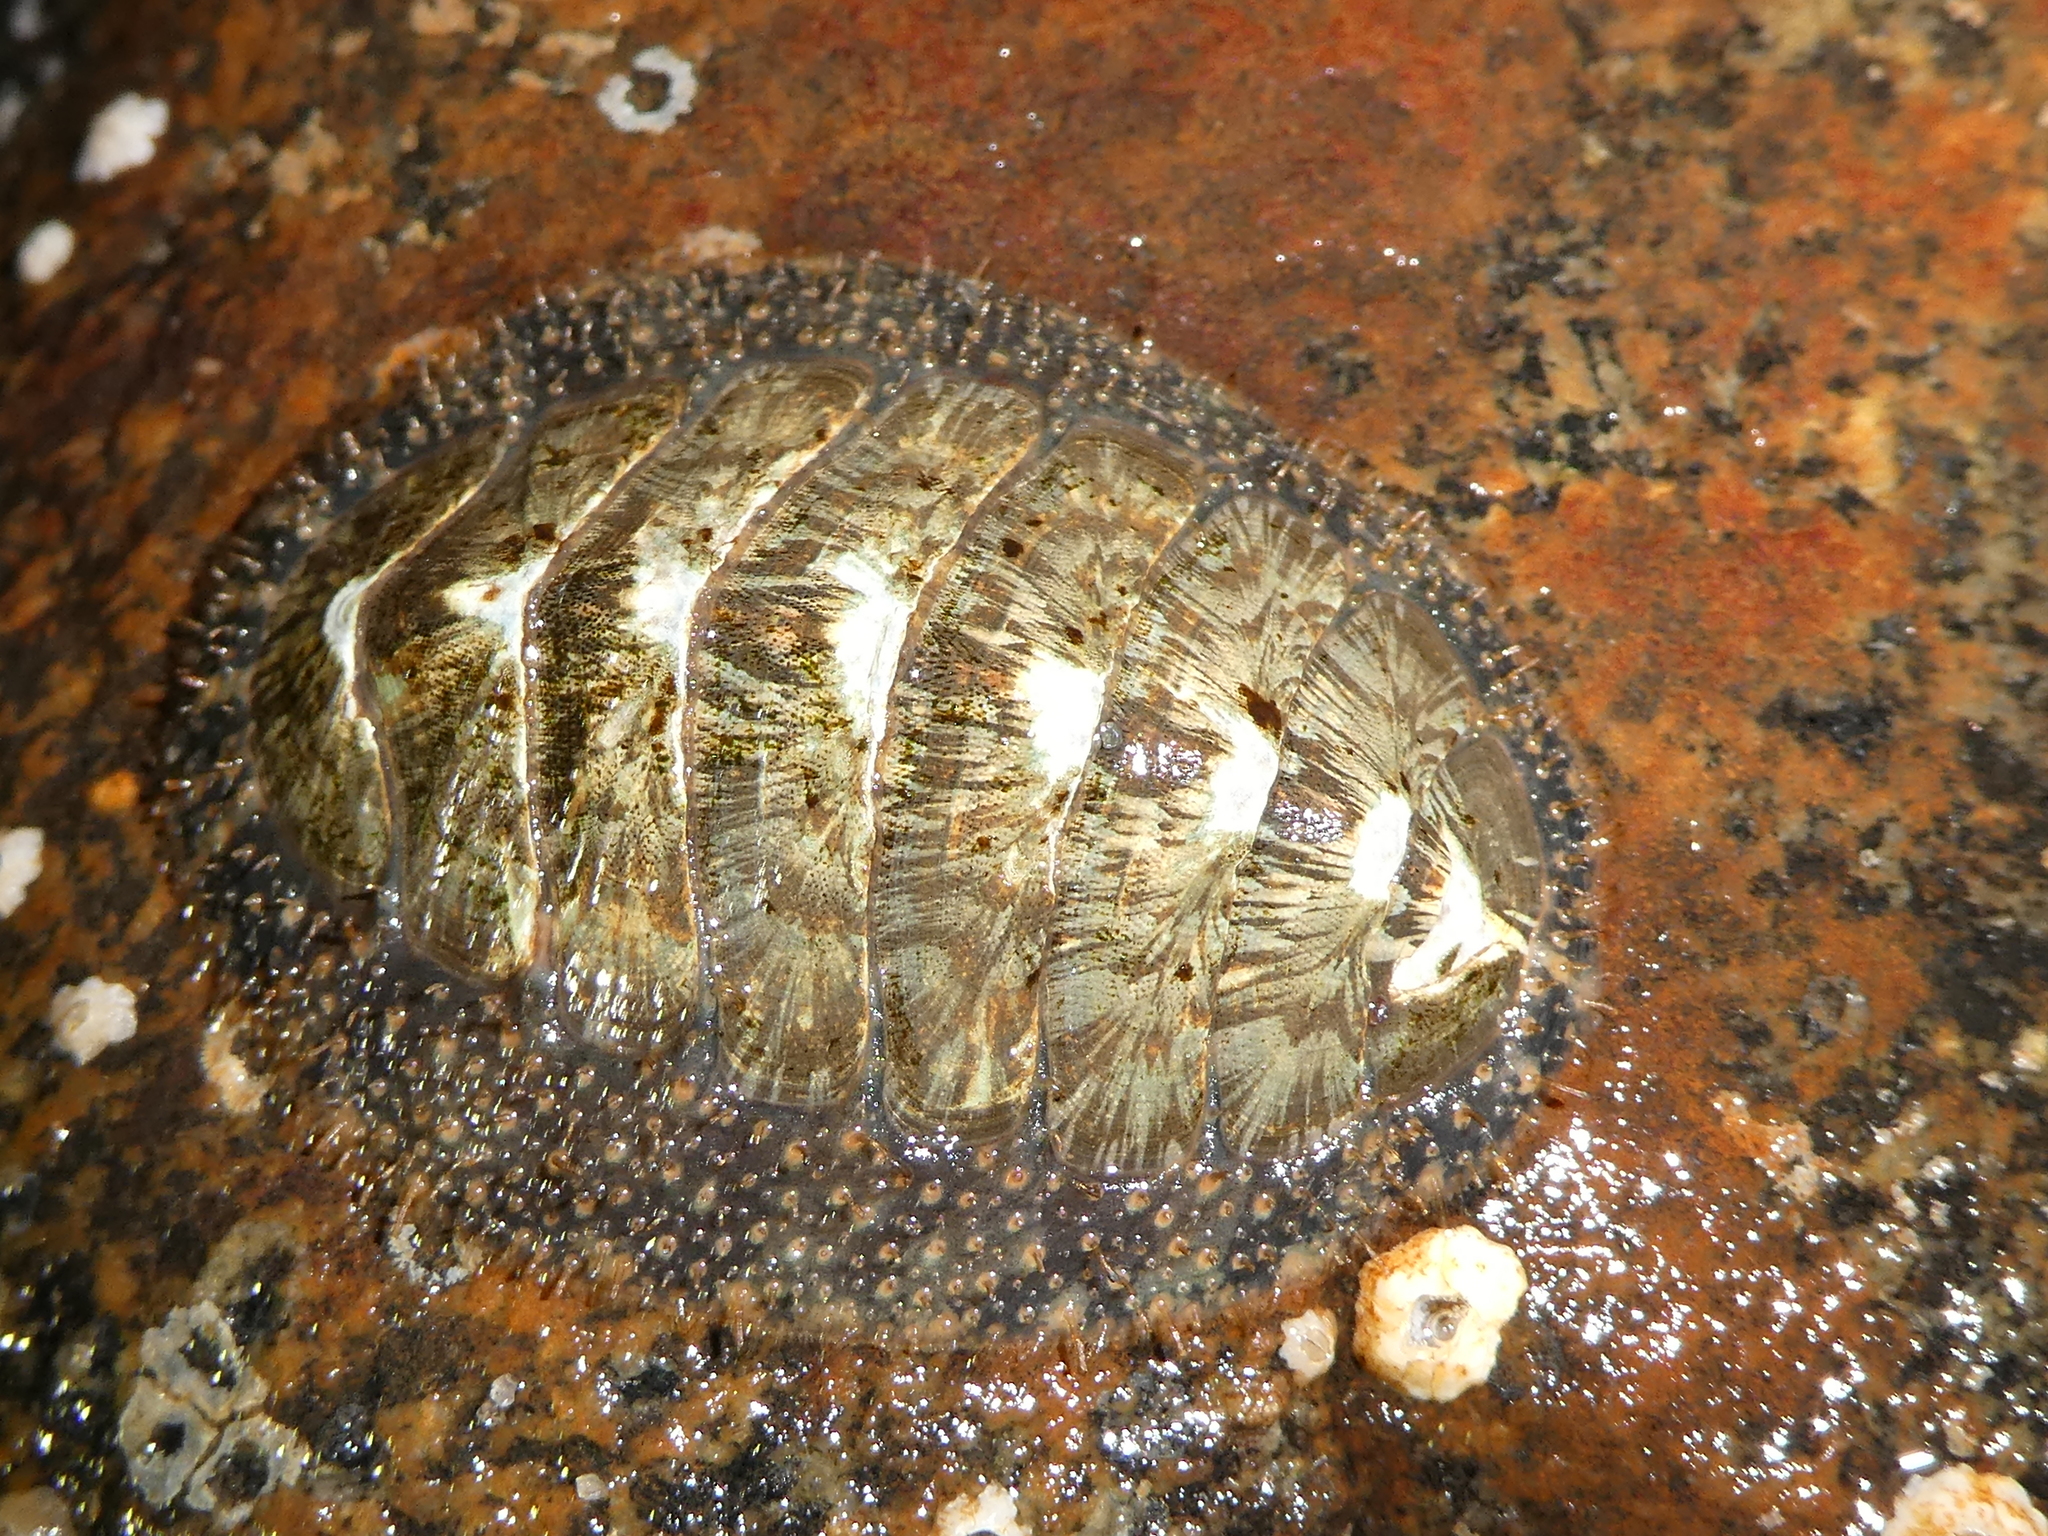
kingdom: Animalia
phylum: Mollusca
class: Polyplacophora
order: Chitonida
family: Mopaliidae
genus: Mopalia
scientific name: Mopalia lignosa
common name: Woody chiton
